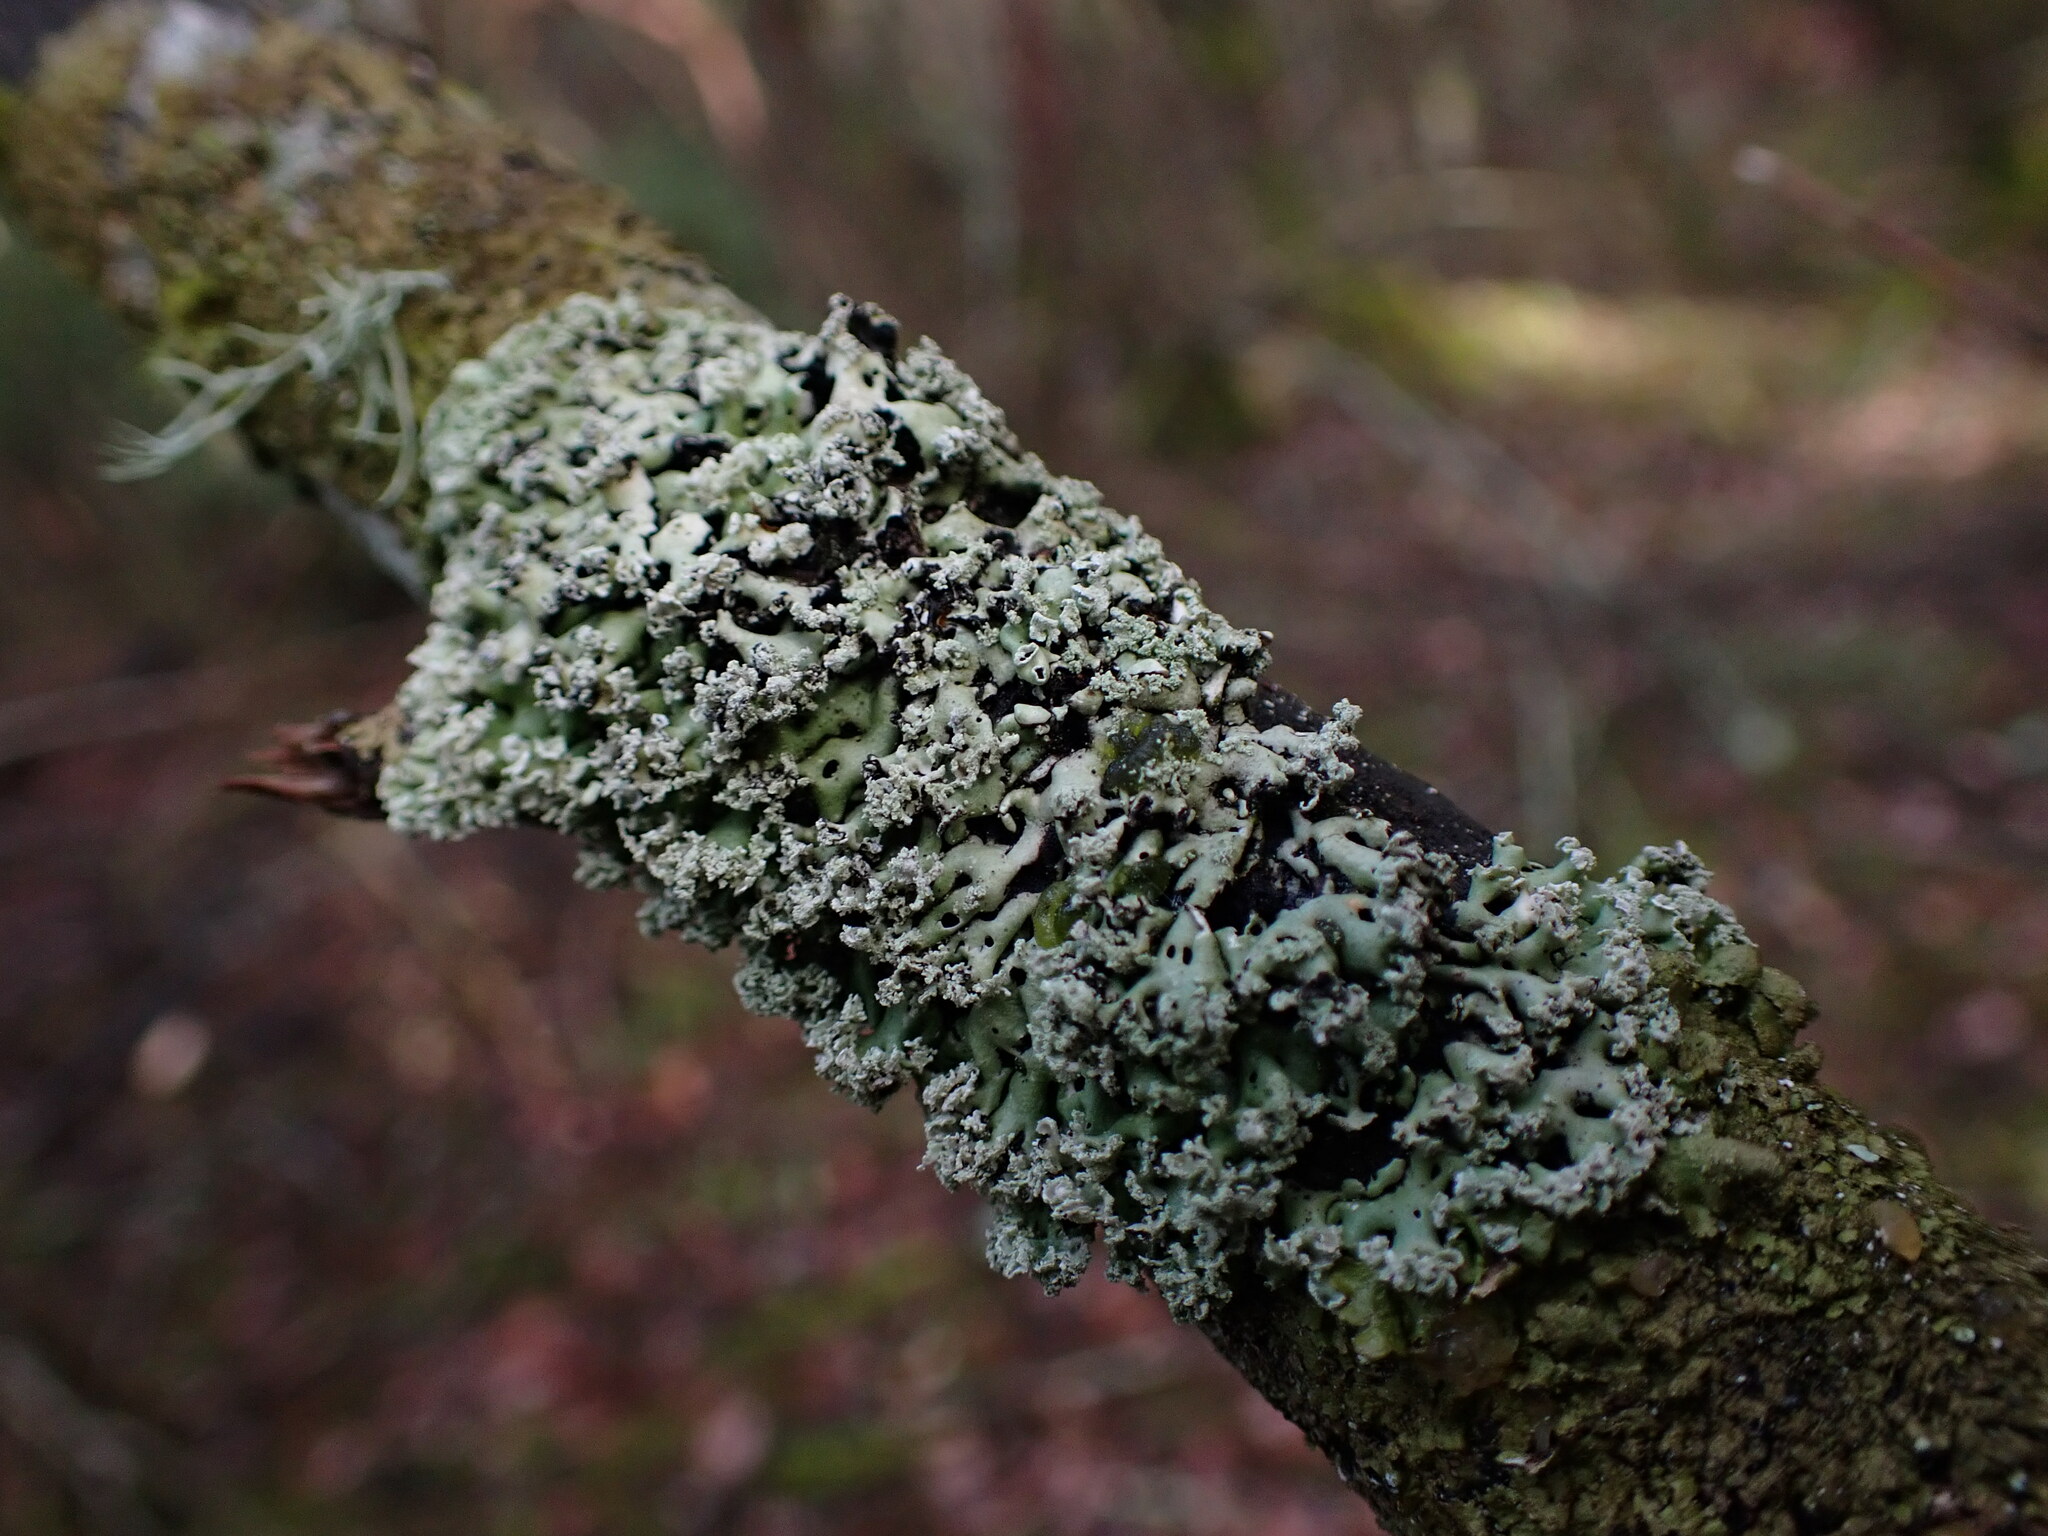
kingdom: Fungi
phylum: Ascomycota
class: Lecanoromycetes
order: Lecanorales
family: Parmeliaceae
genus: Menegazzia
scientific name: Menegazzia subsimilis
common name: Tree flute lichen
